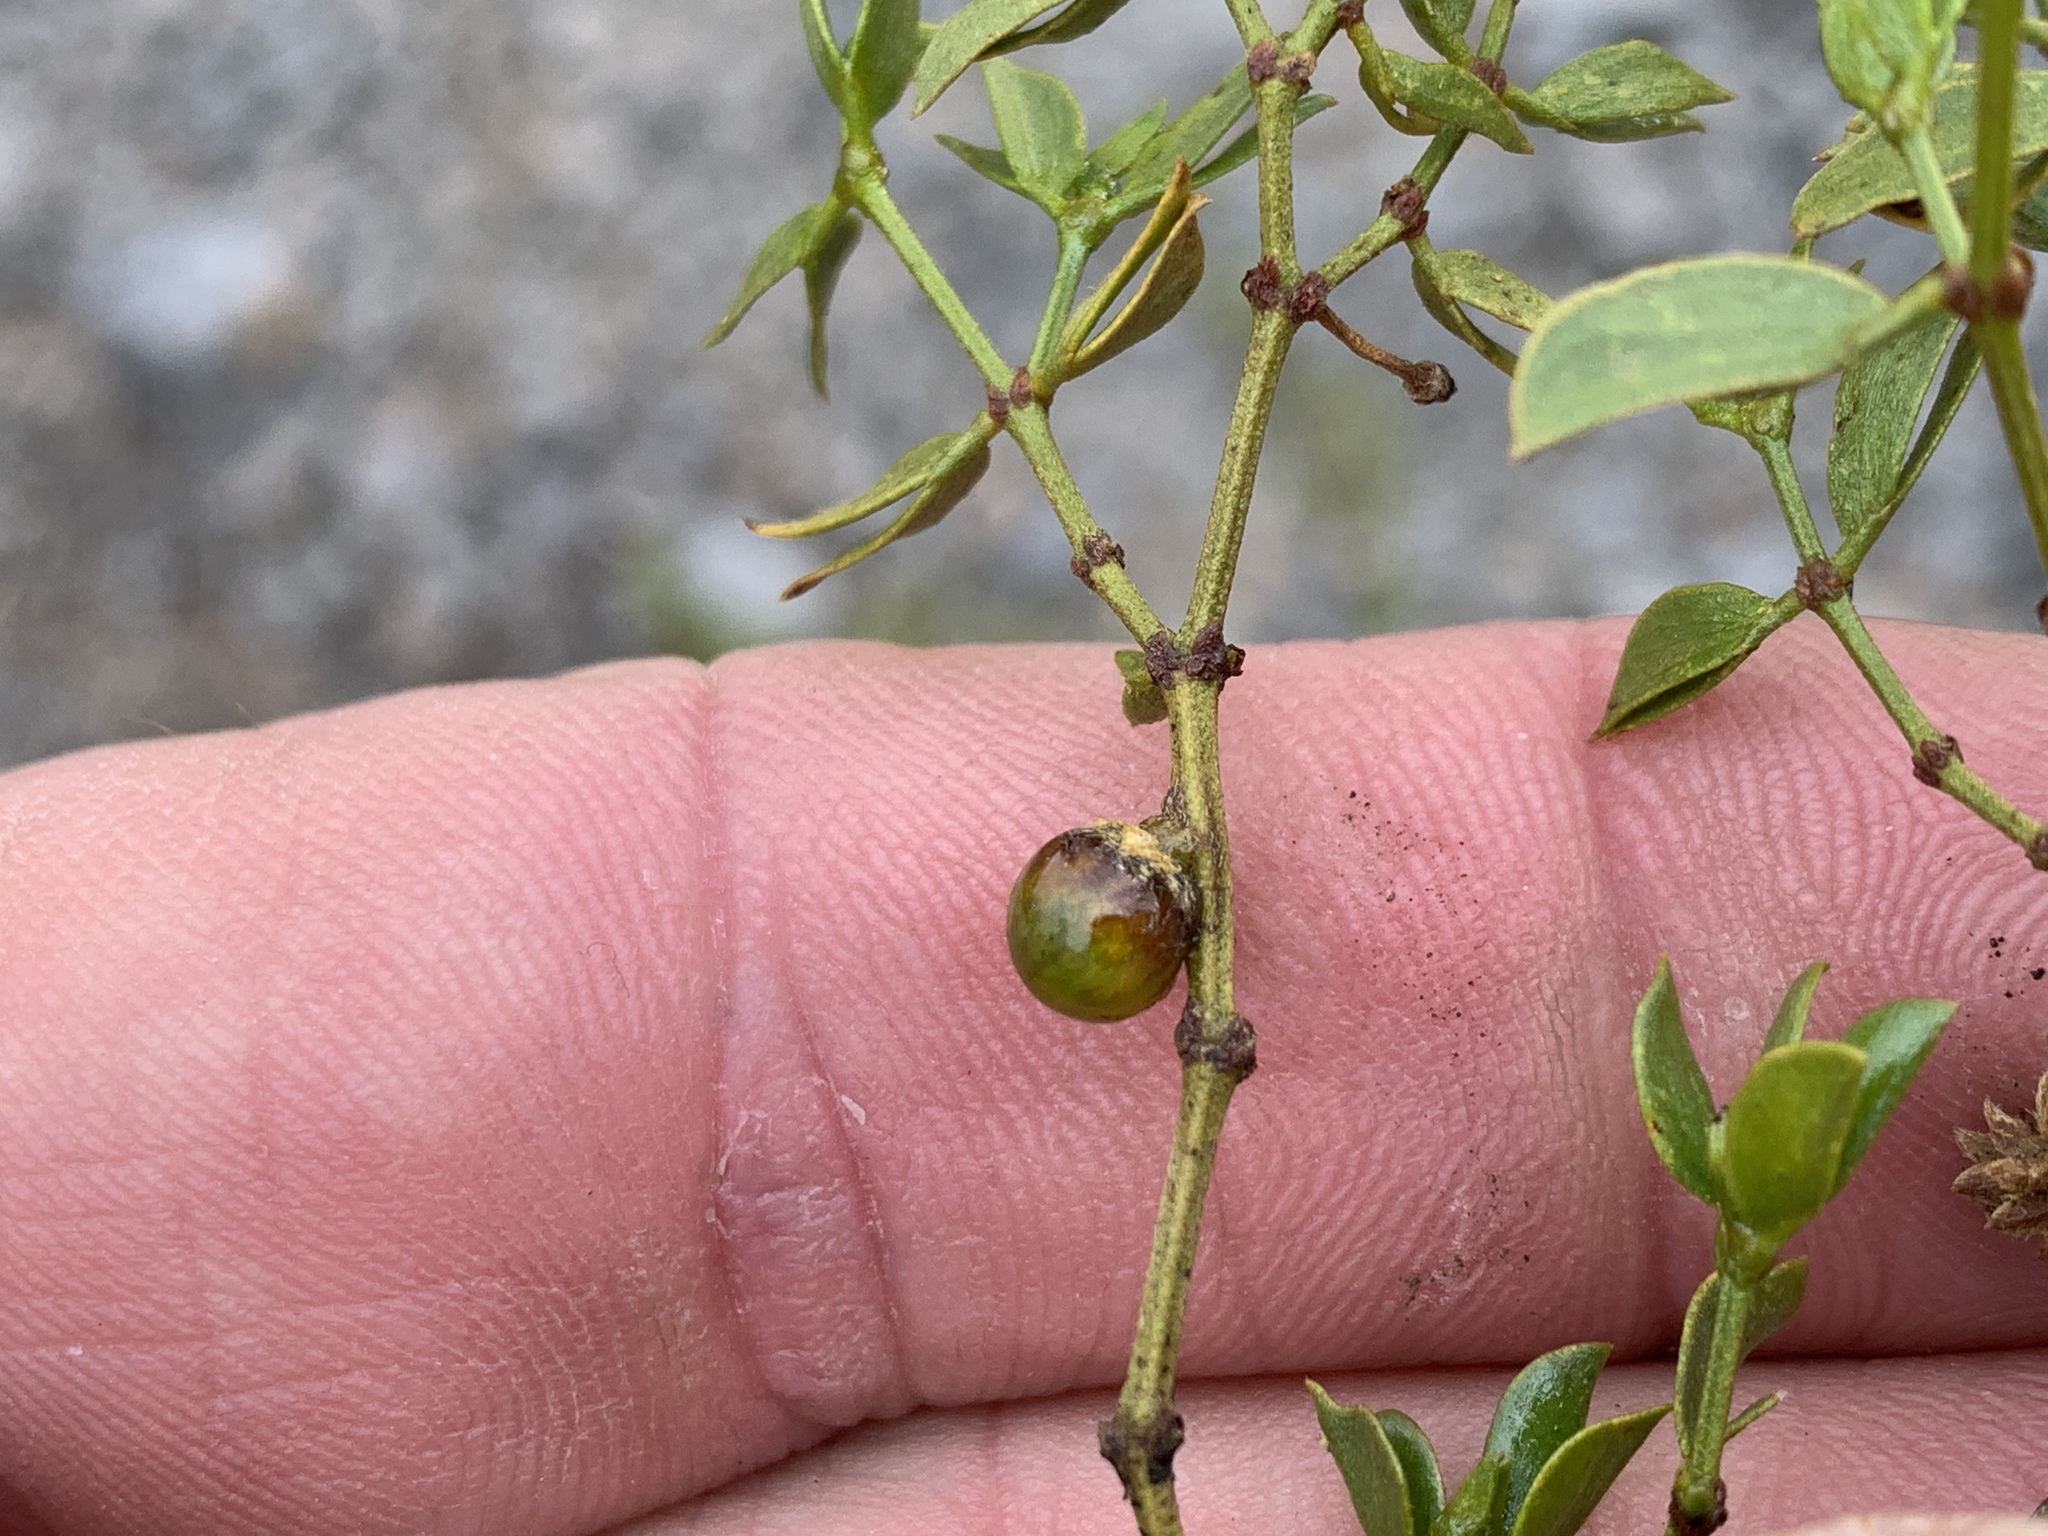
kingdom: Animalia
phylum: Arthropoda
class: Insecta
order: Diptera
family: Cecidomyiidae
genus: Asphondylia
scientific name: Asphondylia resinosa
